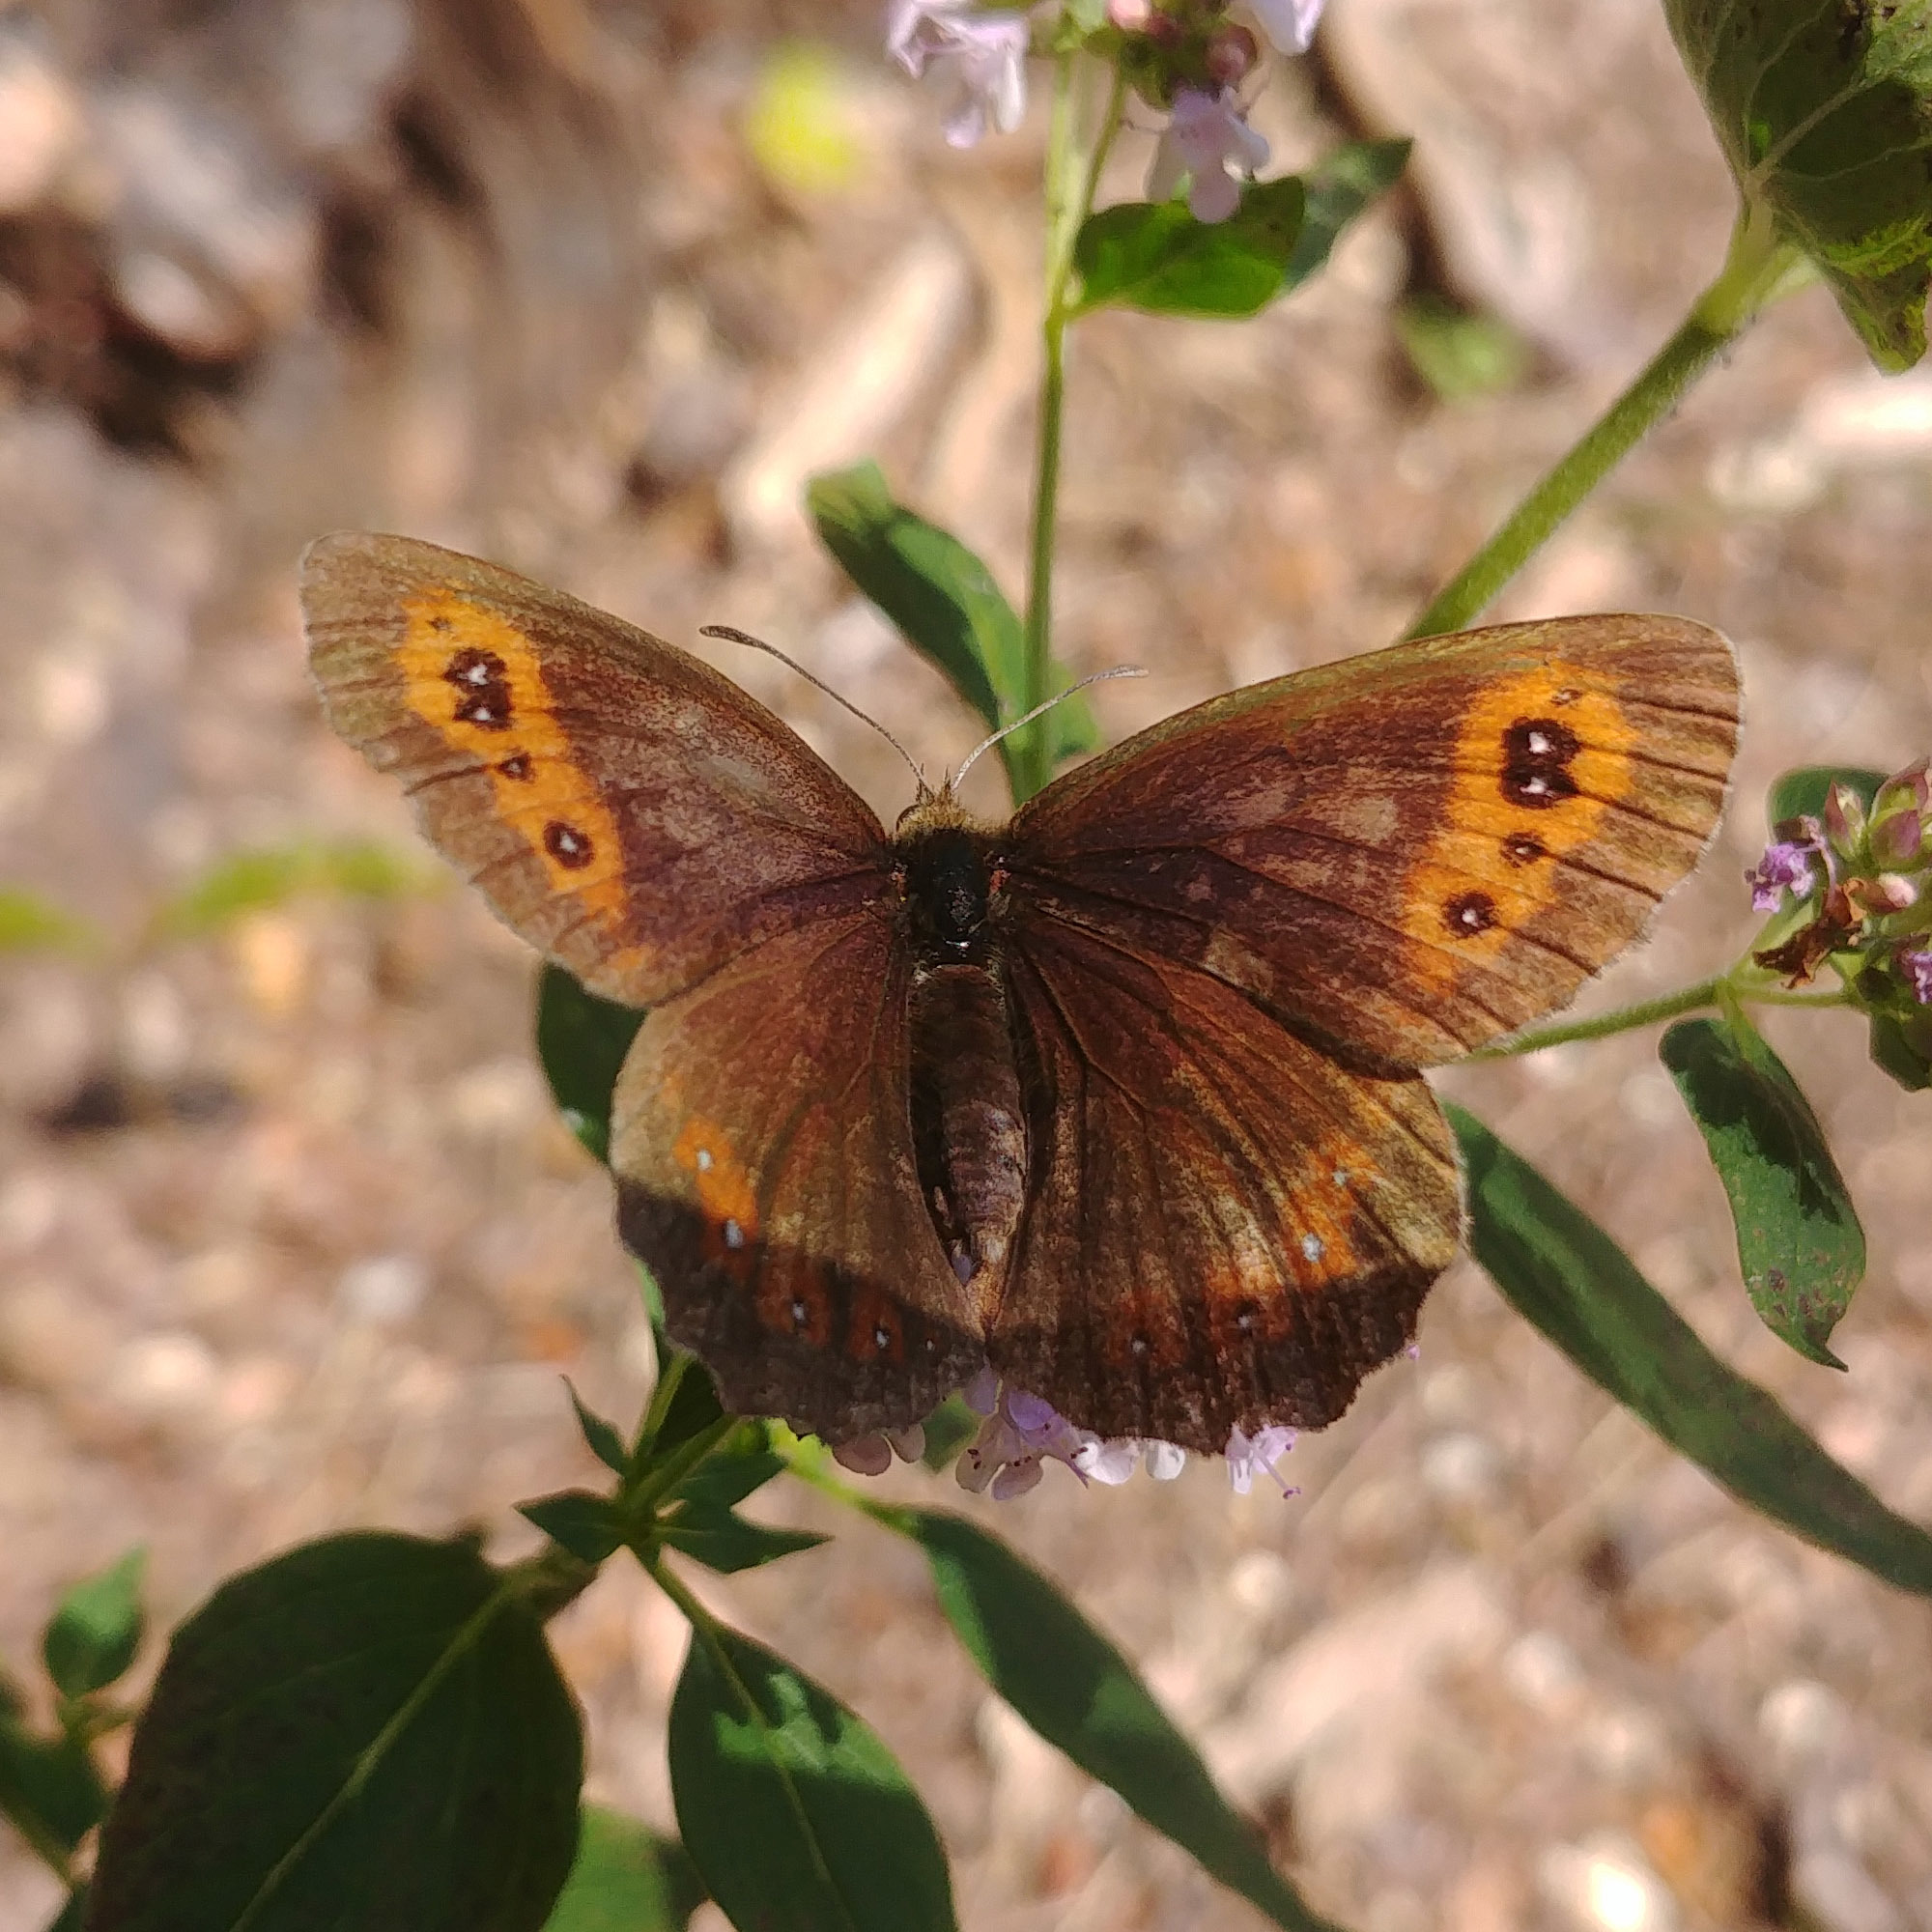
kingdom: Animalia
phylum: Arthropoda
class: Insecta
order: Lepidoptera
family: Nymphalidae
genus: Erebia
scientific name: Erebia aethiops
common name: Scotch argus
